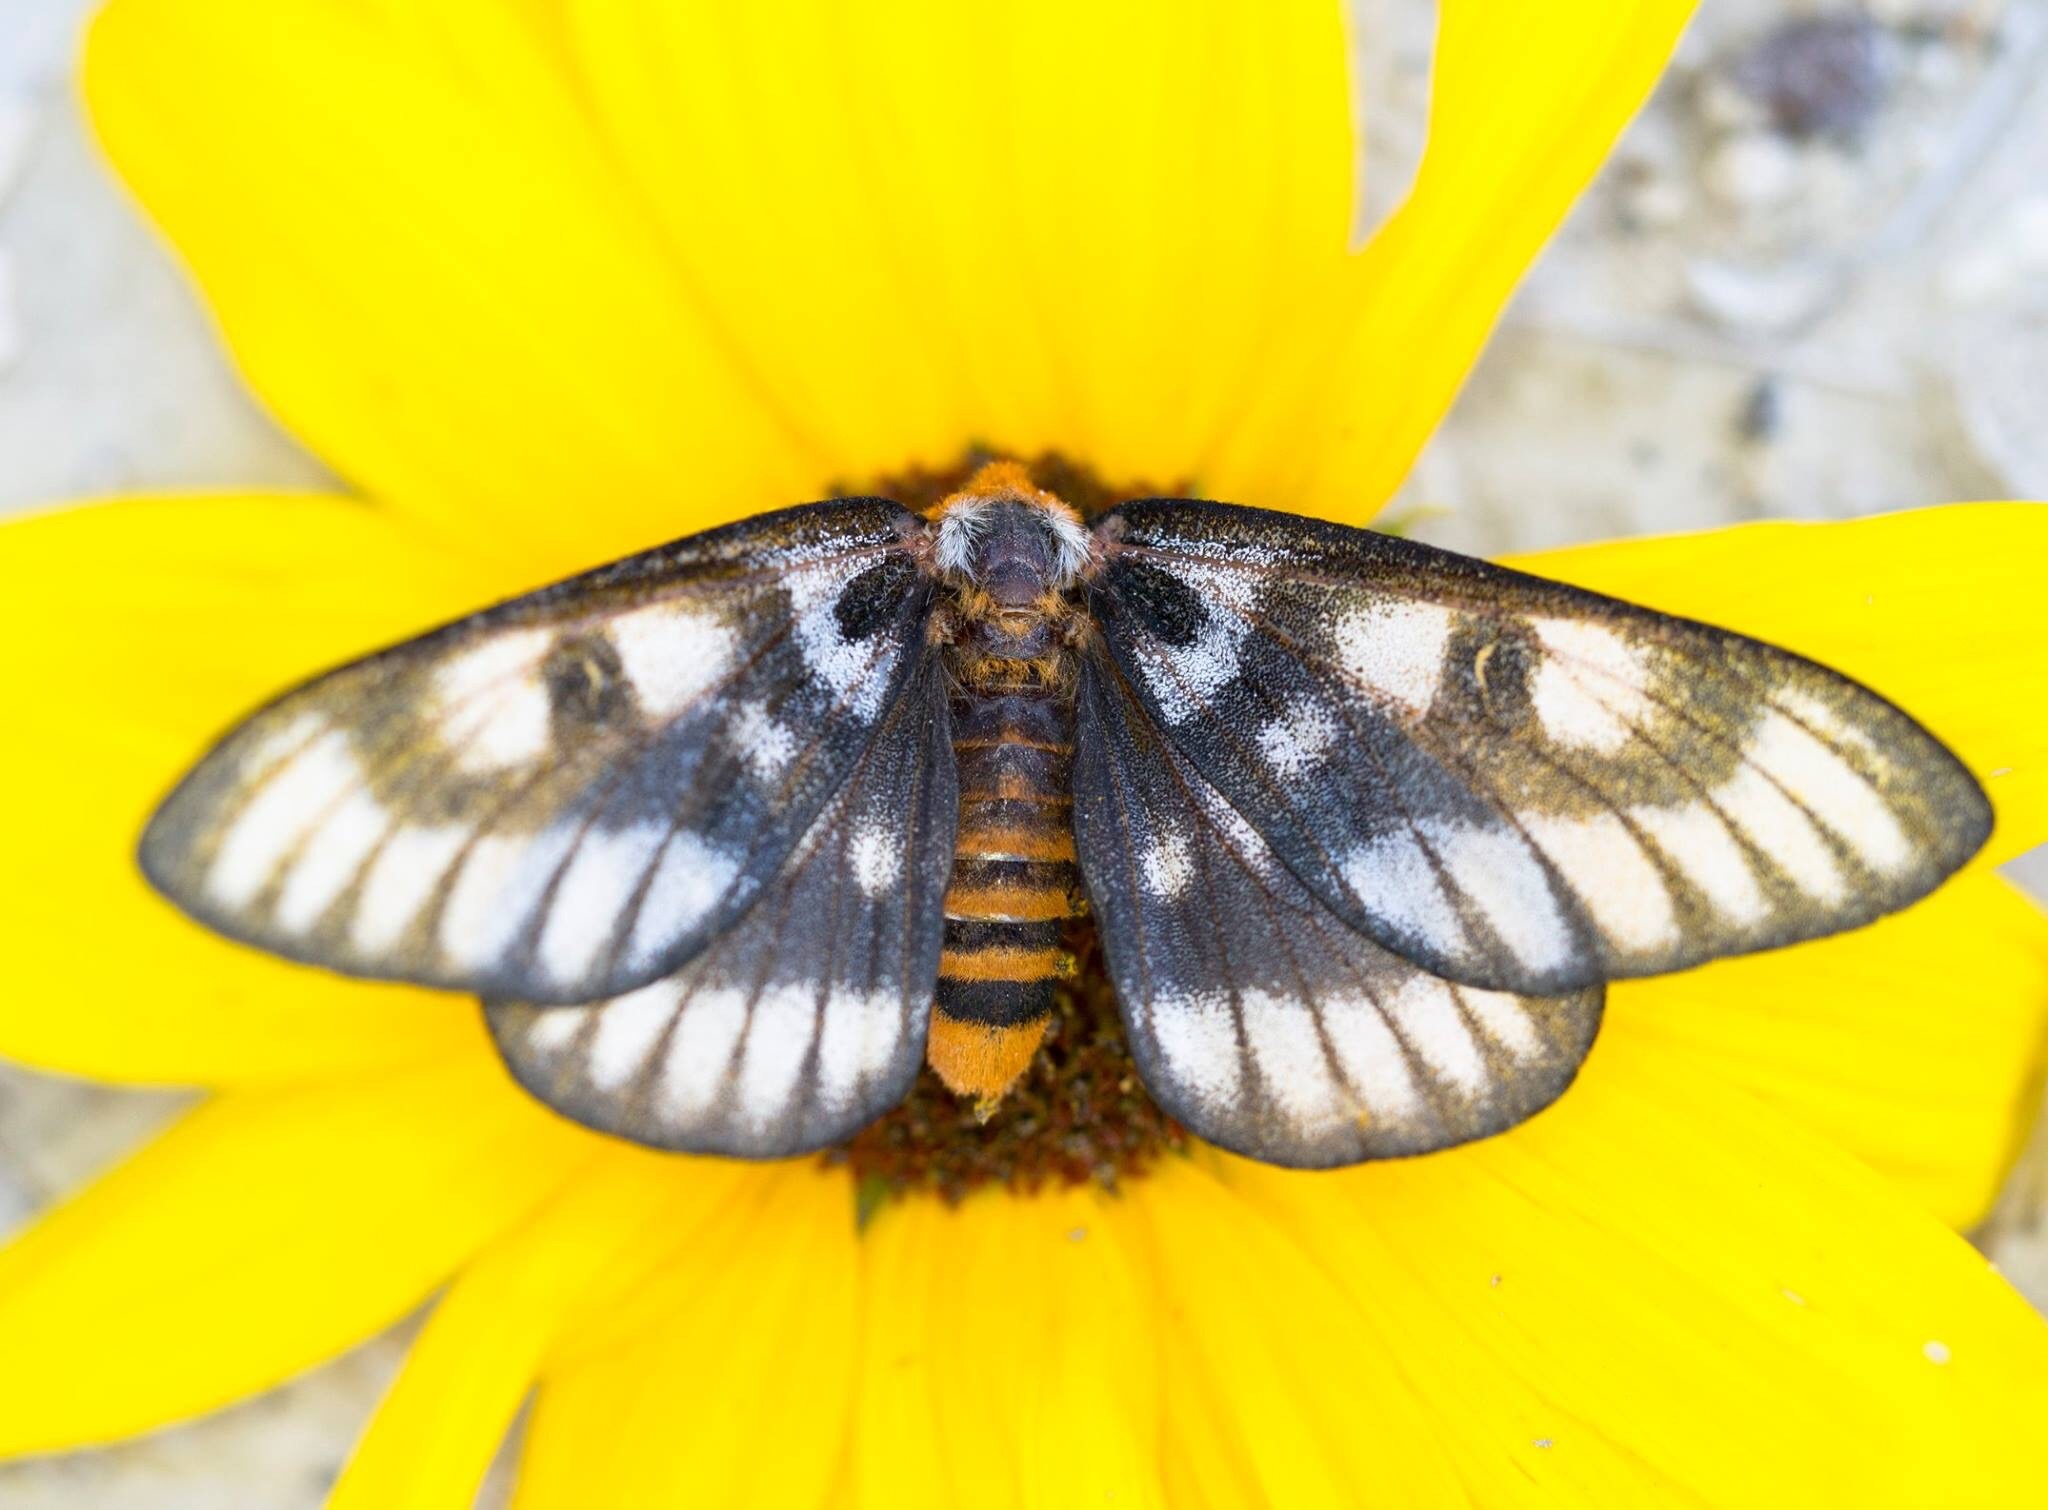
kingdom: Animalia
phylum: Arthropoda
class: Insecta
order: Lepidoptera
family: Saturniidae
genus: Hemileuca
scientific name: Hemileuca hera
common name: Hera sheepmoth
